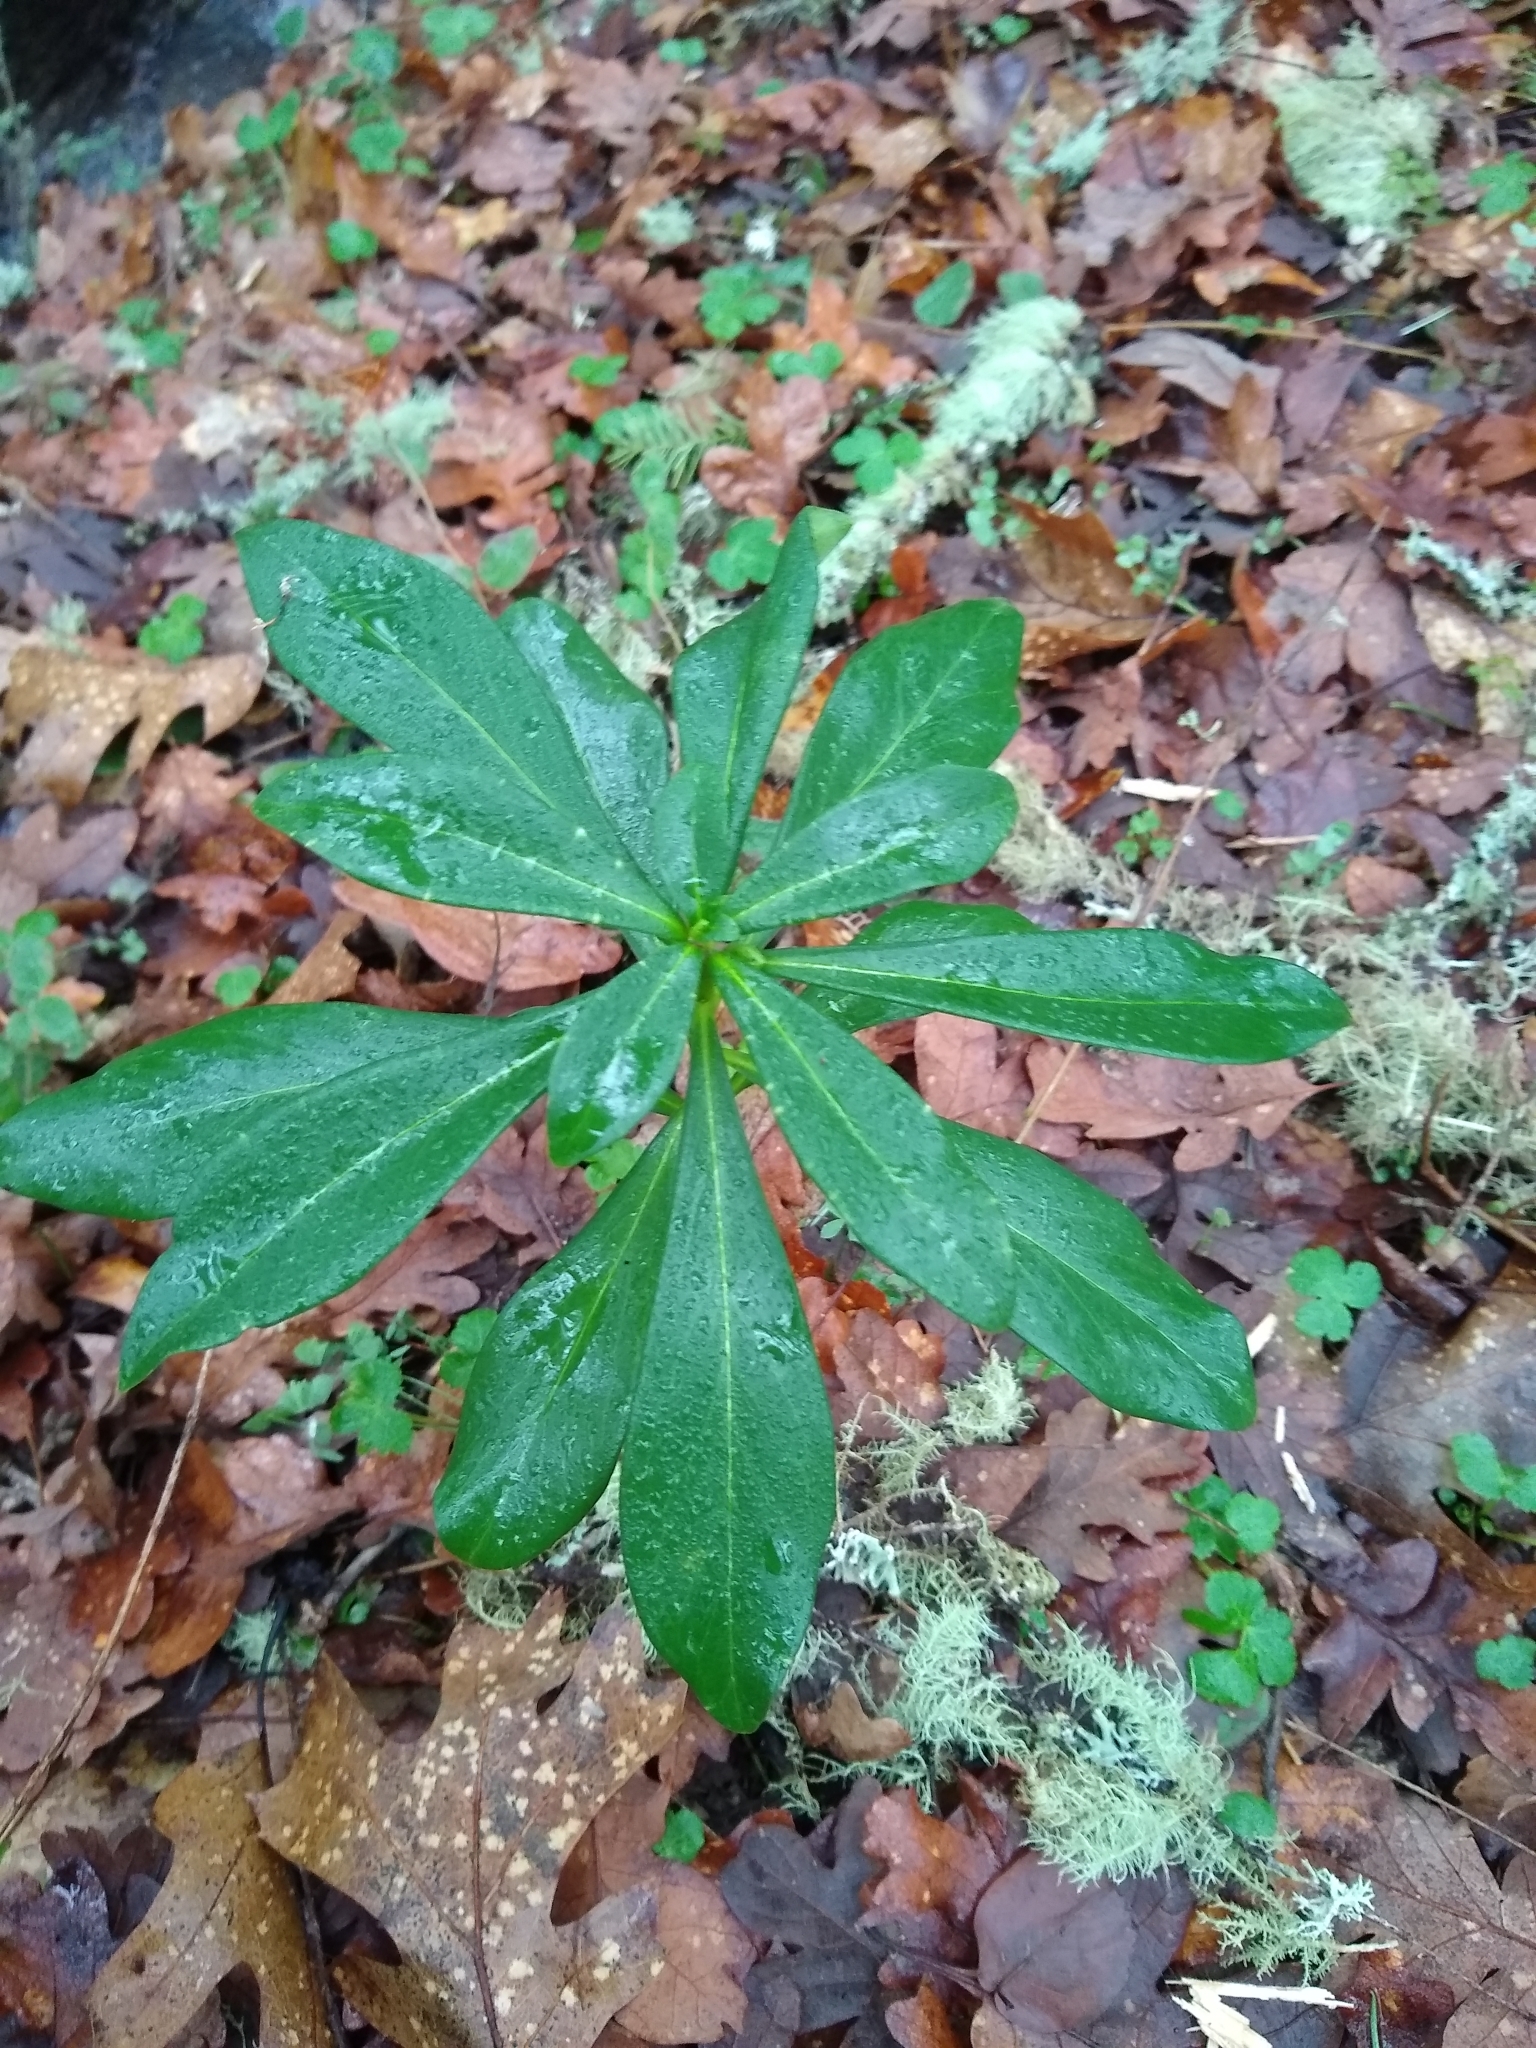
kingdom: Plantae
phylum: Tracheophyta
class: Magnoliopsida
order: Malvales
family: Thymelaeaceae
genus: Daphne
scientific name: Daphne laureola
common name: Spurge-laurel
